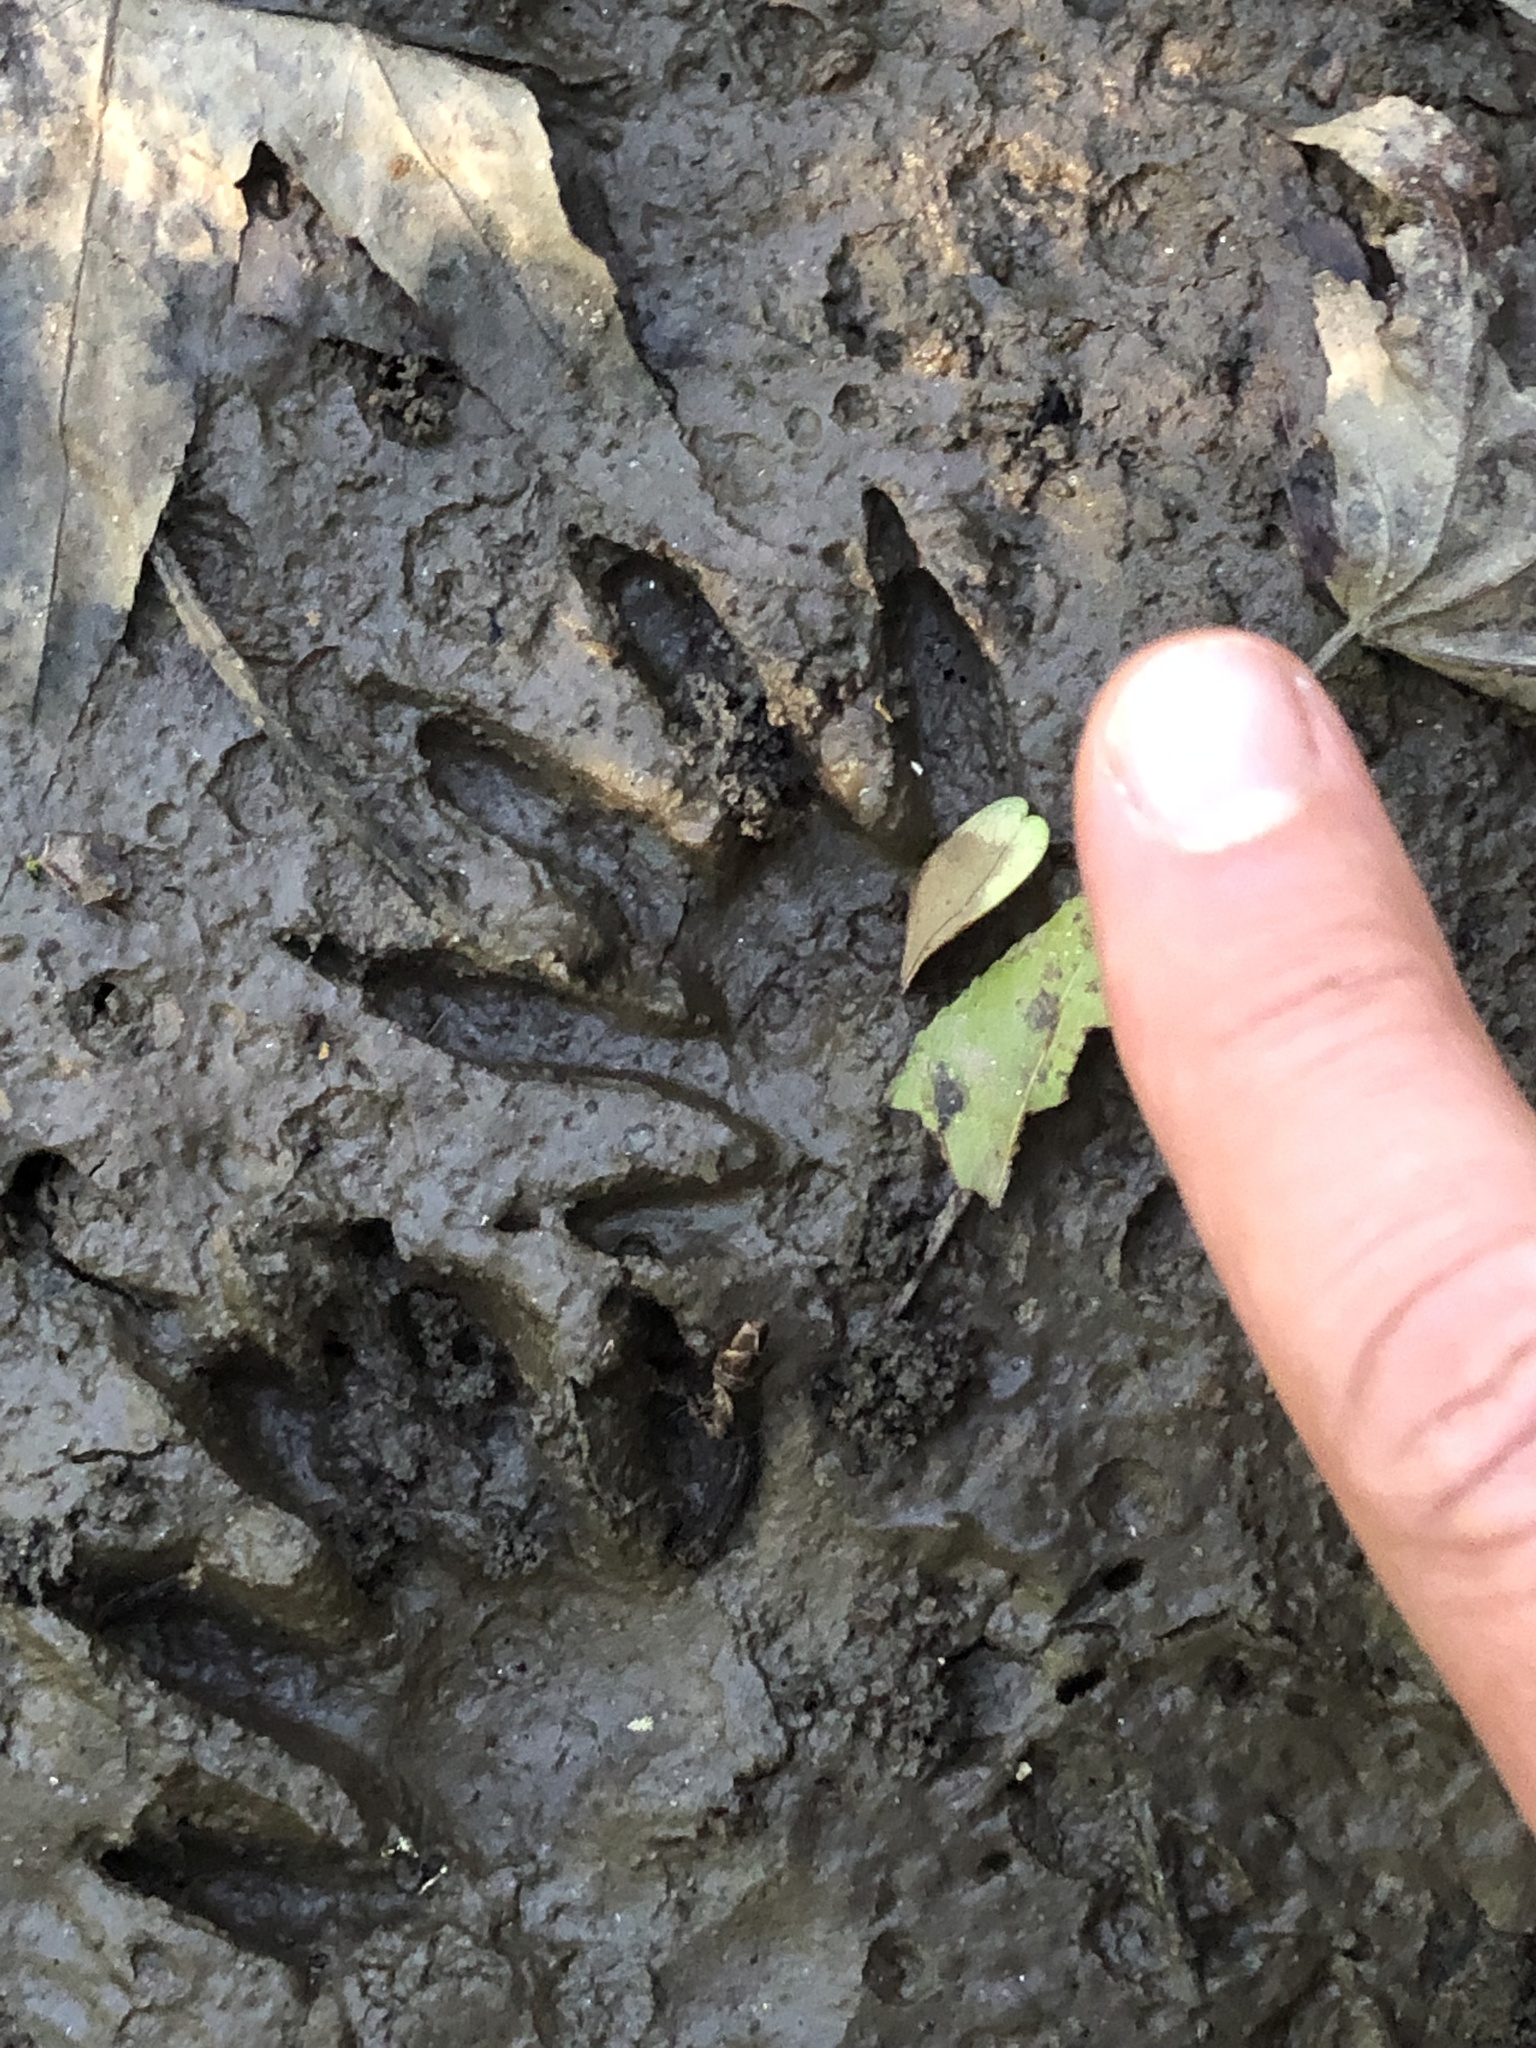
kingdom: Animalia
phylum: Chordata
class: Mammalia
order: Carnivora
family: Procyonidae
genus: Procyon
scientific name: Procyon lotor
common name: Raccoon
